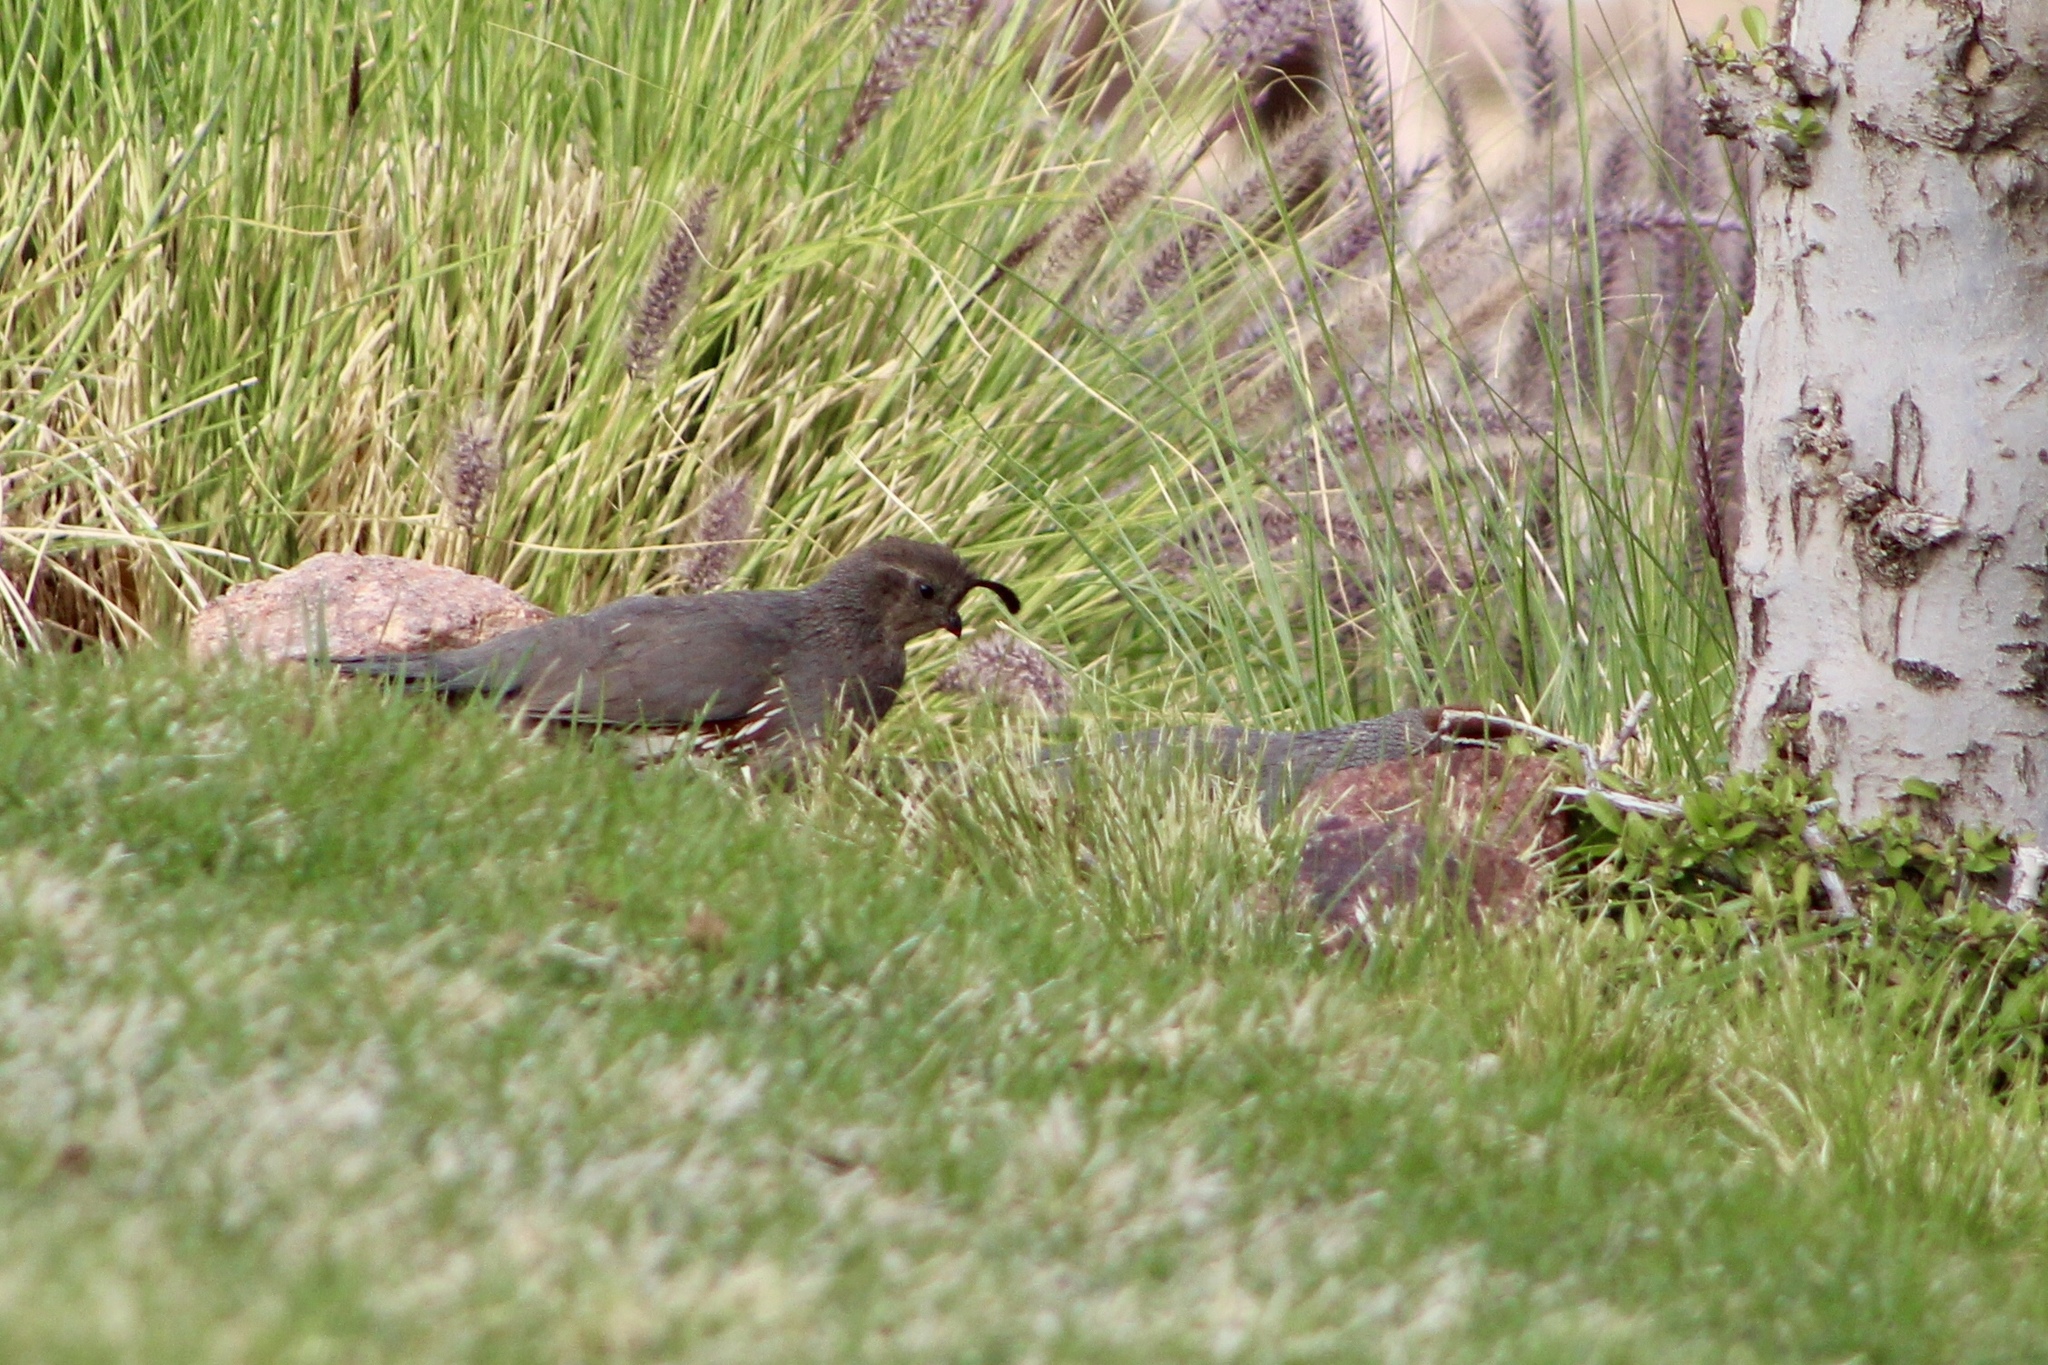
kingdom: Animalia
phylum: Chordata
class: Aves
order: Galliformes
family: Odontophoridae
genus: Callipepla
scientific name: Callipepla gambelii
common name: Gambel's quail
